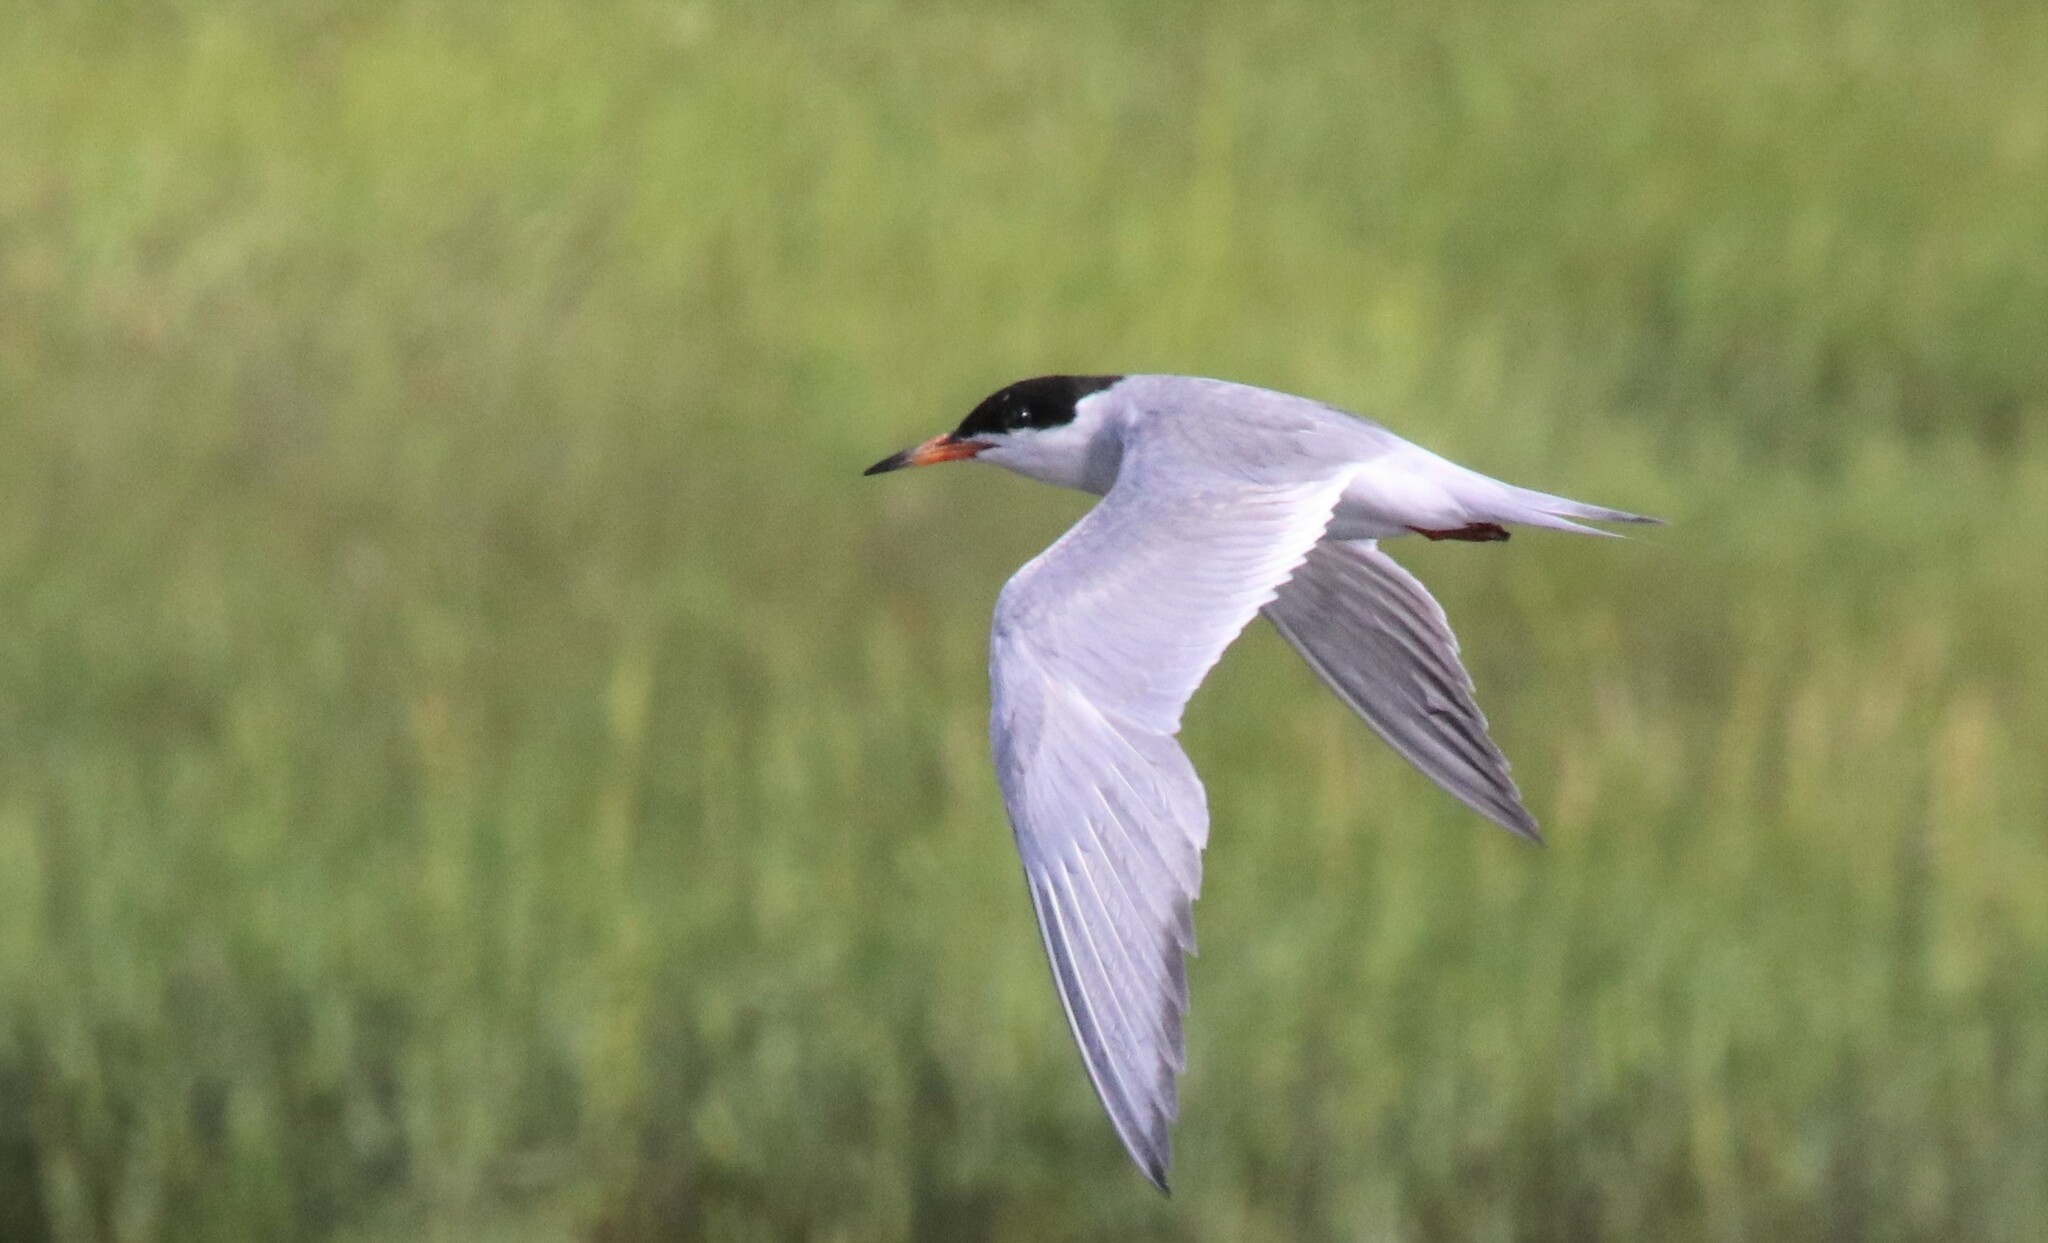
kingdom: Animalia
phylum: Chordata
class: Aves
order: Charadriiformes
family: Laridae
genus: Sterna
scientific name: Sterna forsteri
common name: Forster's tern
